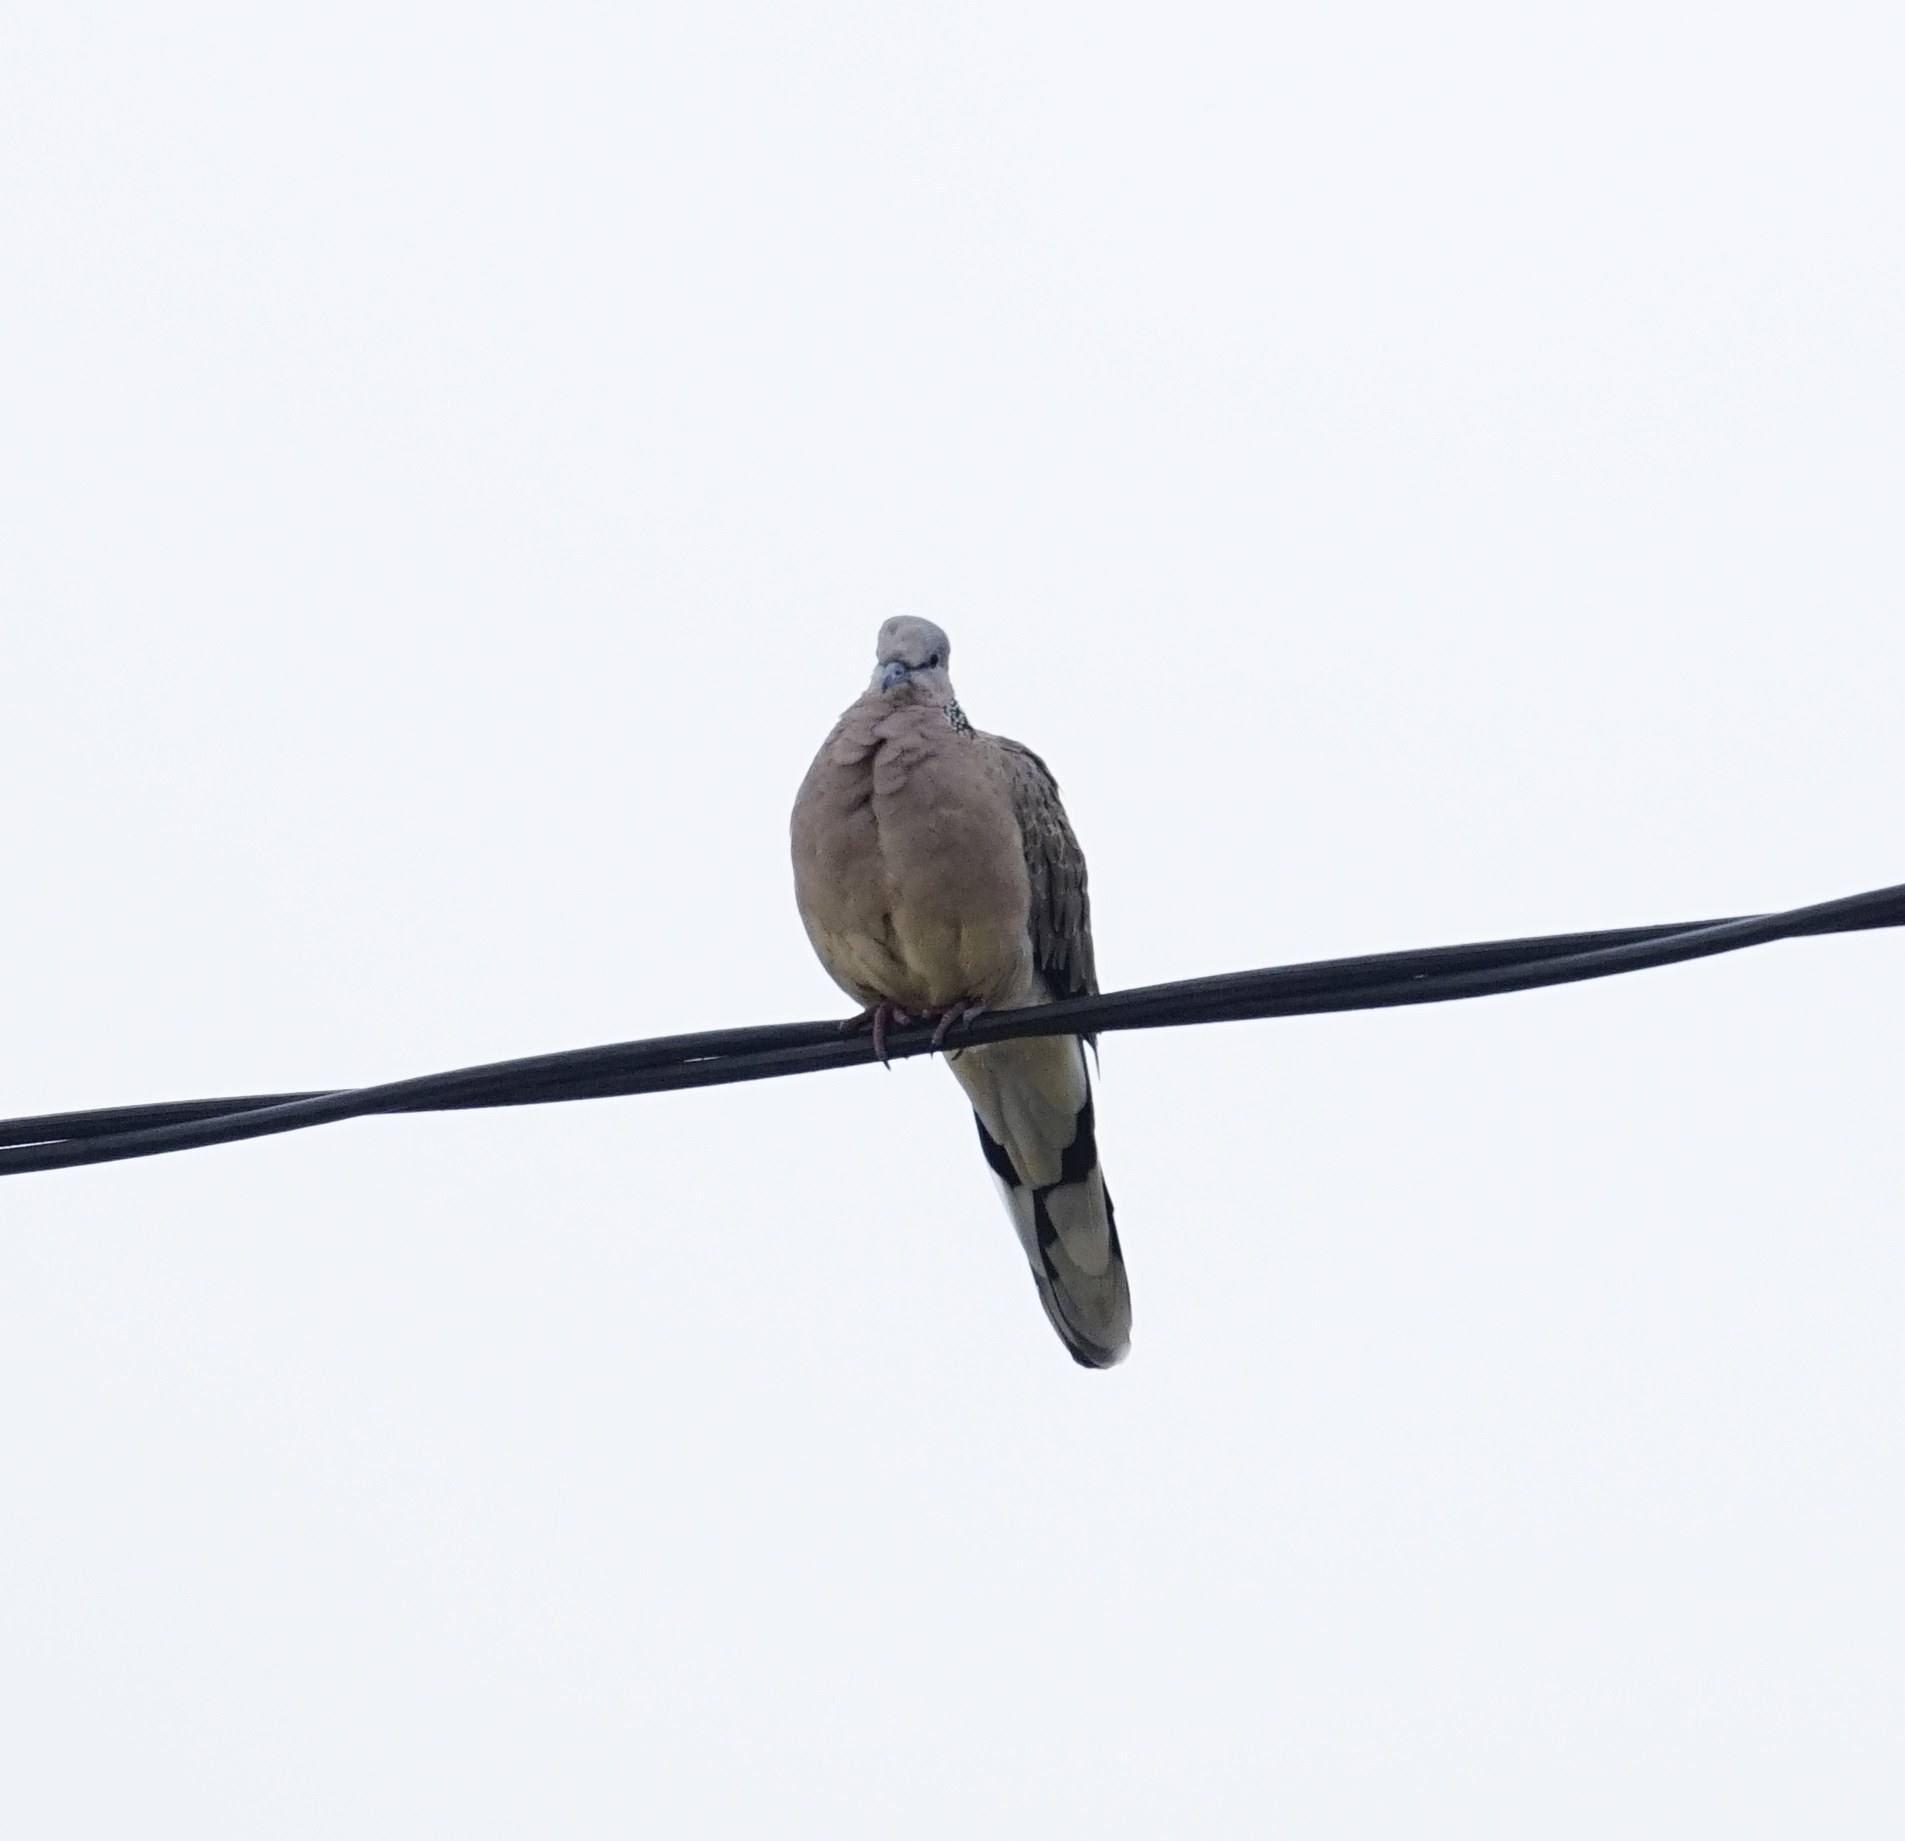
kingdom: Animalia
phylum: Chordata
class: Aves
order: Columbiformes
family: Columbidae
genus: Spilopelia
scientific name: Spilopelia chinensis
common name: Spotted dove
